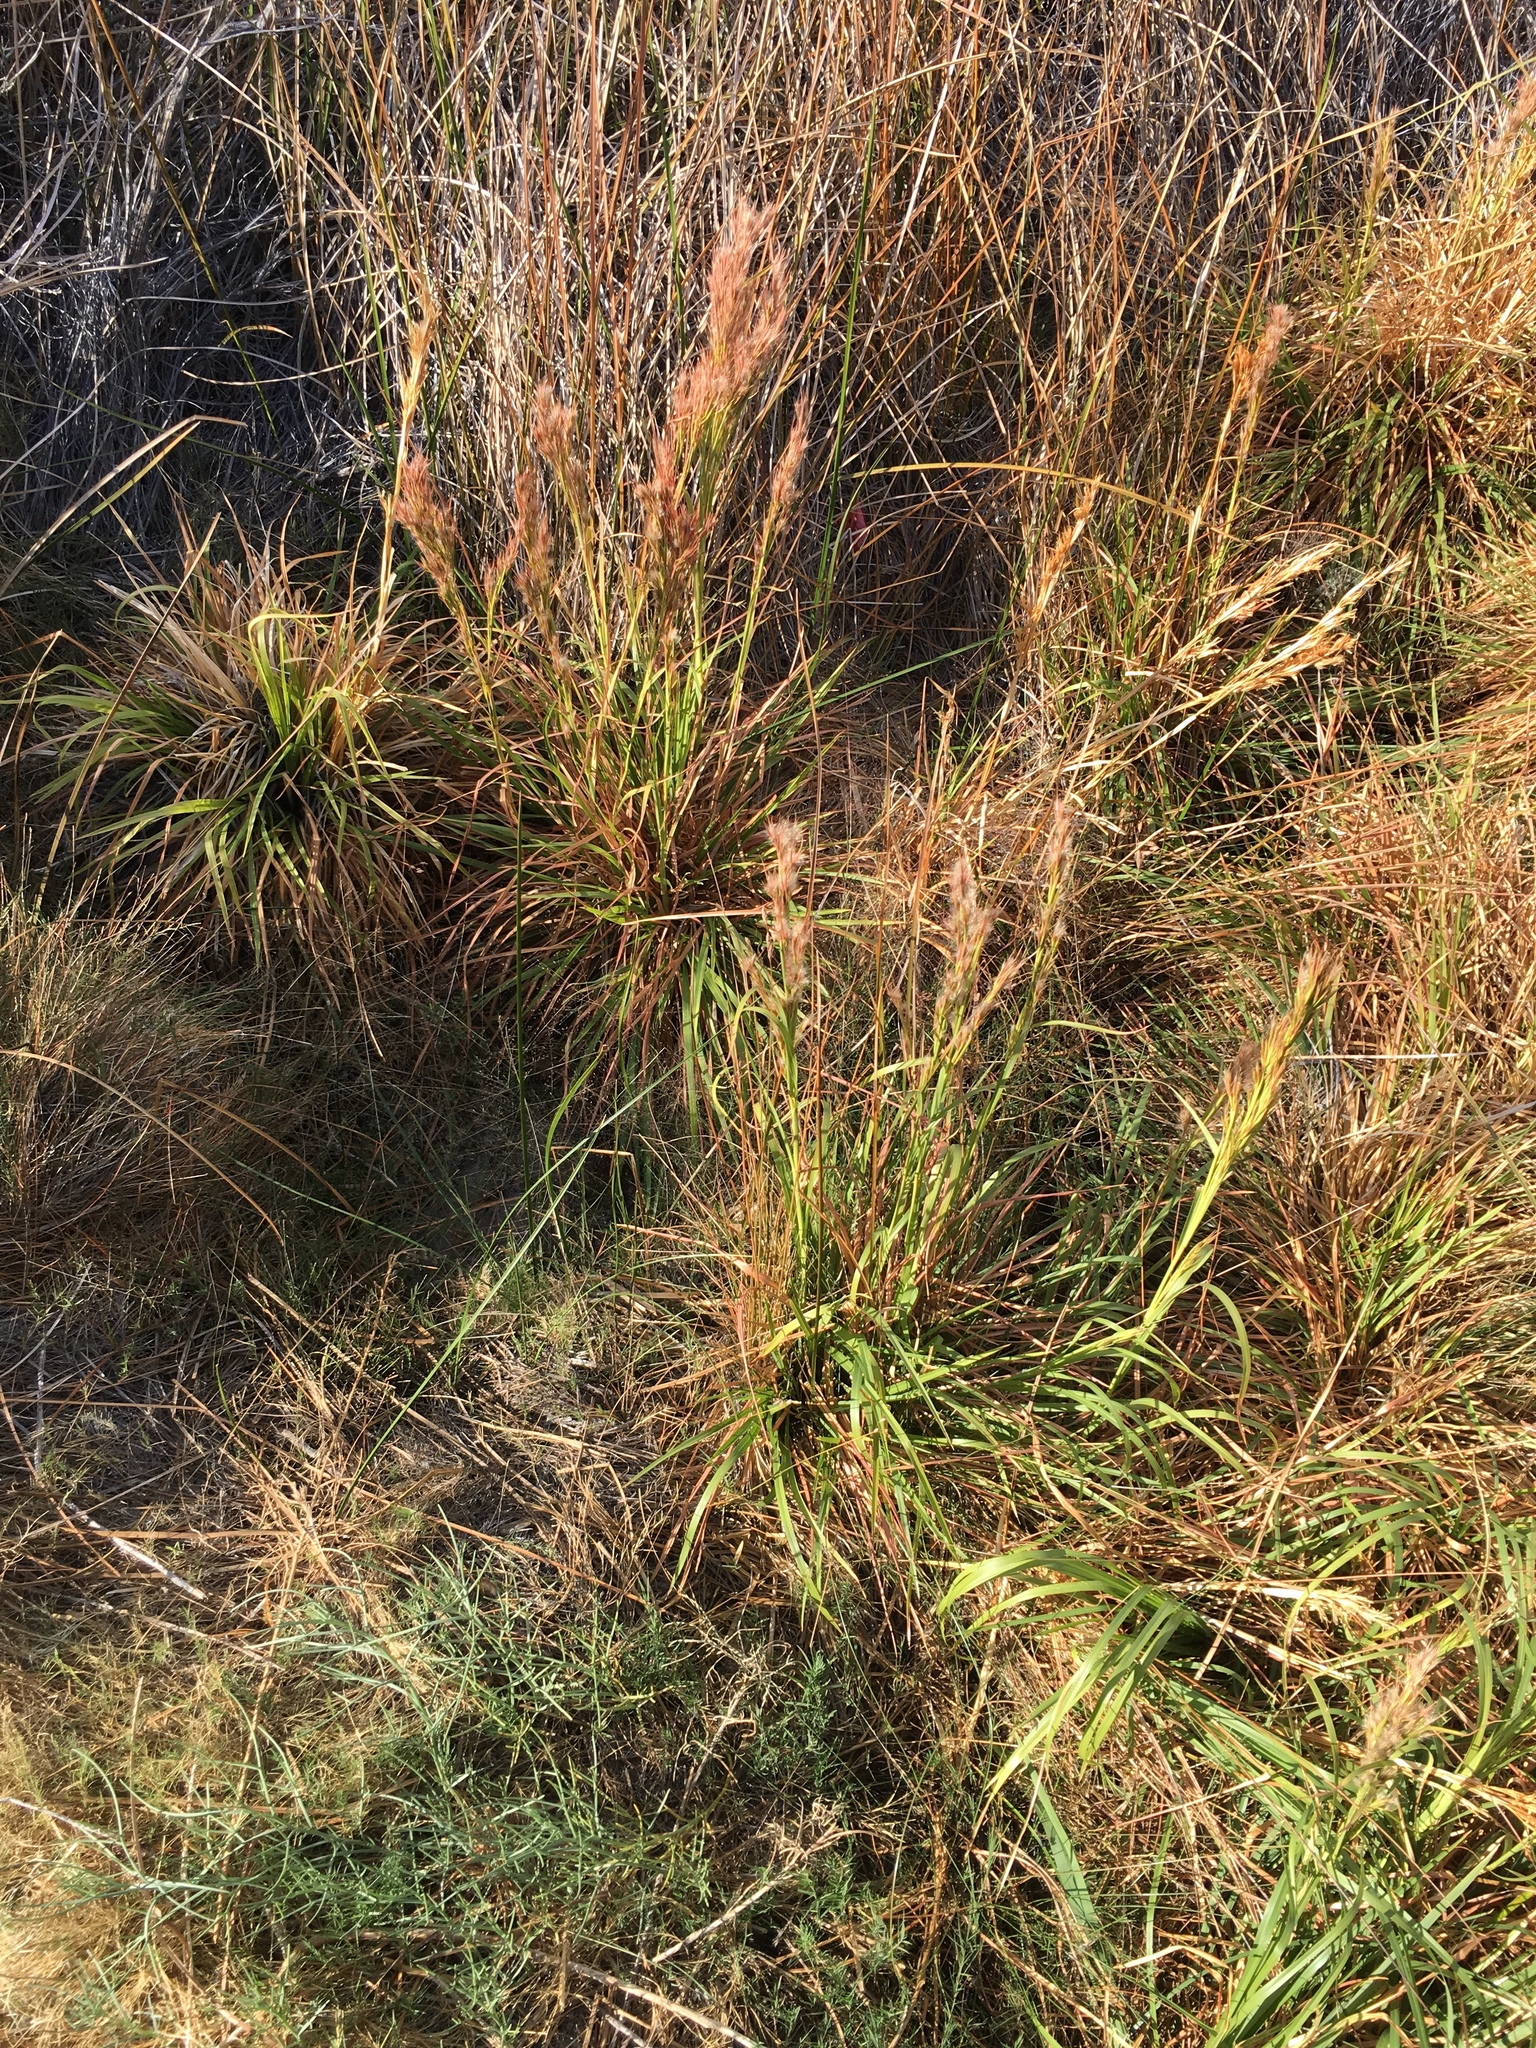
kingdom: Plantae
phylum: Tracheophyta
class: Liliopsida
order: Poales
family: Poaceae
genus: Andropogon
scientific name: Andropogon eremicus
